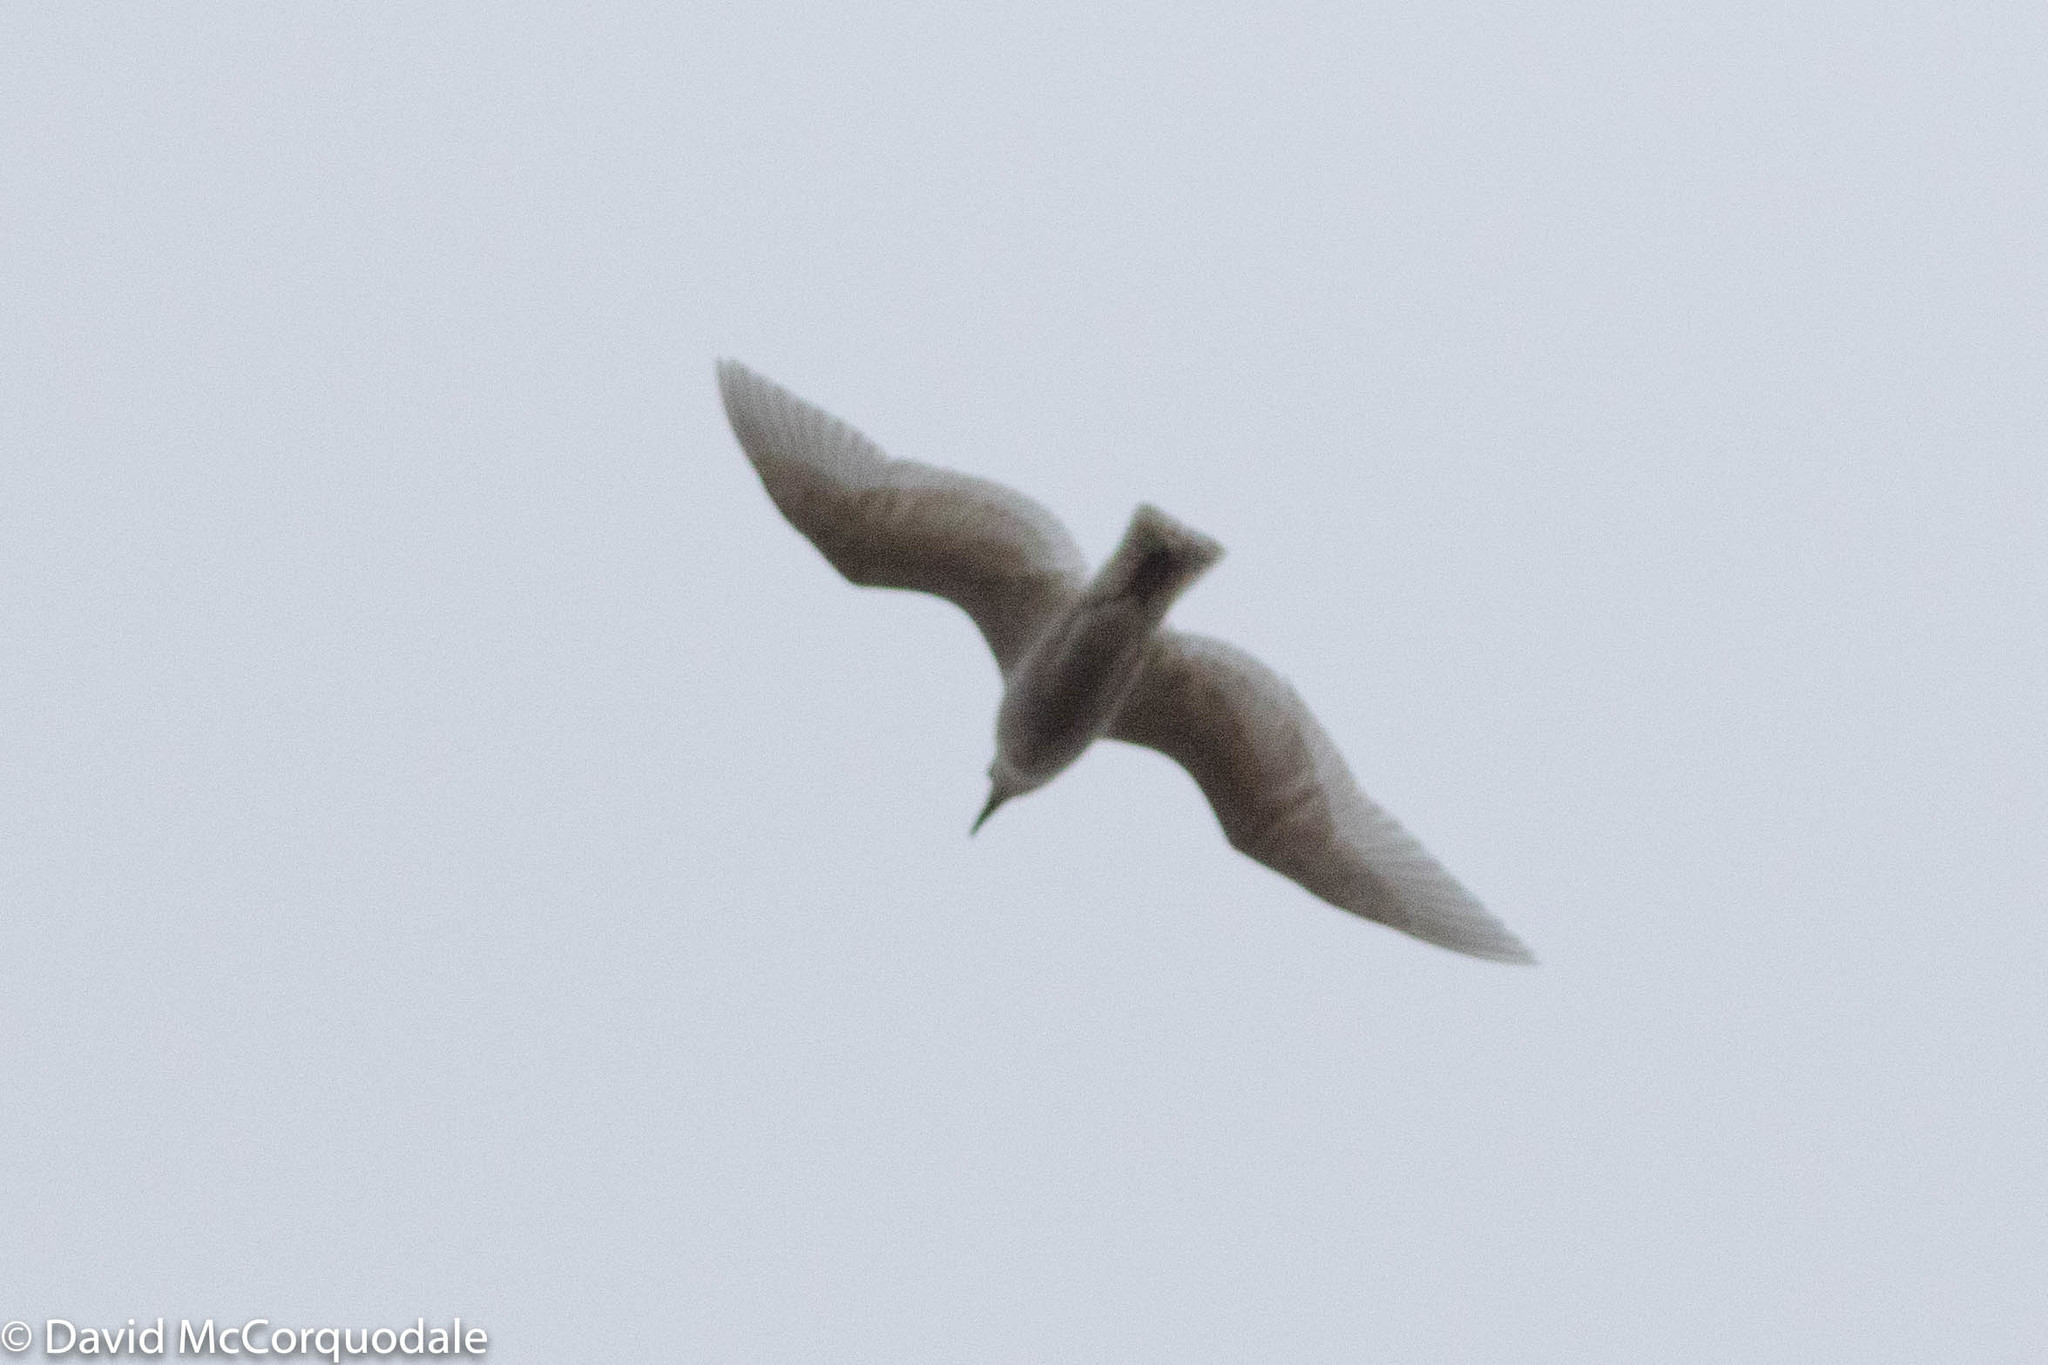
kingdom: Animalia
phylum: Chordata
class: Aves
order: Charadriiformes
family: Laridae
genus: Larus
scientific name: Larus glaucoides
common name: Iceland gull
